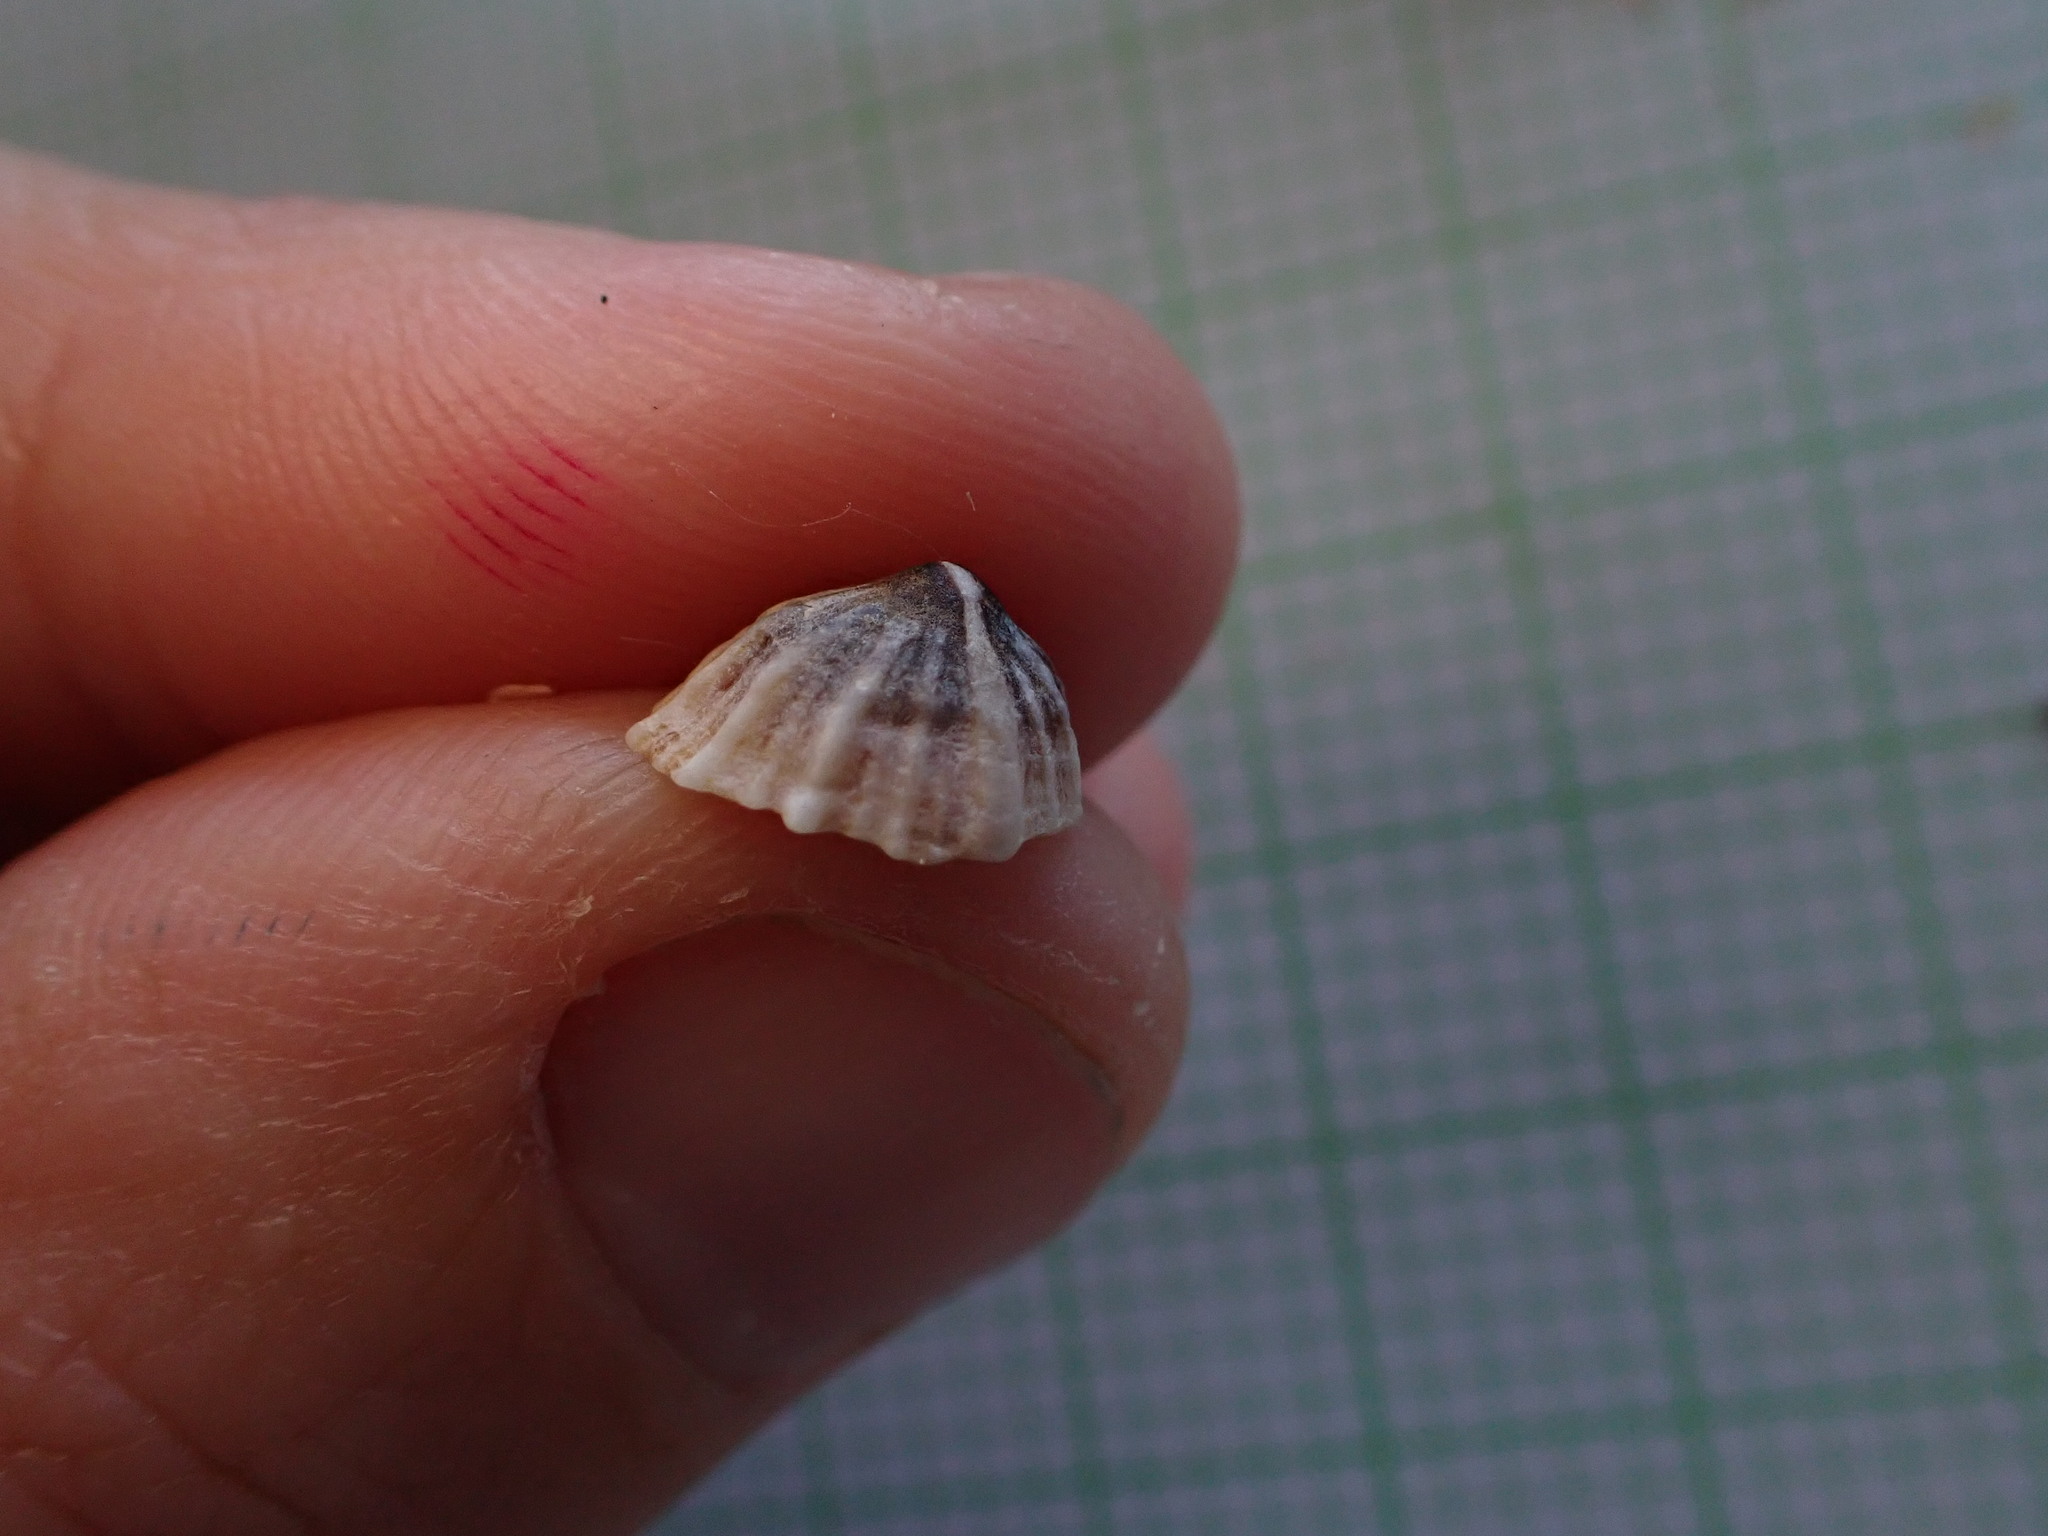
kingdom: Animalia
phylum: Mollusca
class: Gastropoda
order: Siphonariida
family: Siphonariidae
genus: Siphonaria
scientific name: Siphonaria propria
